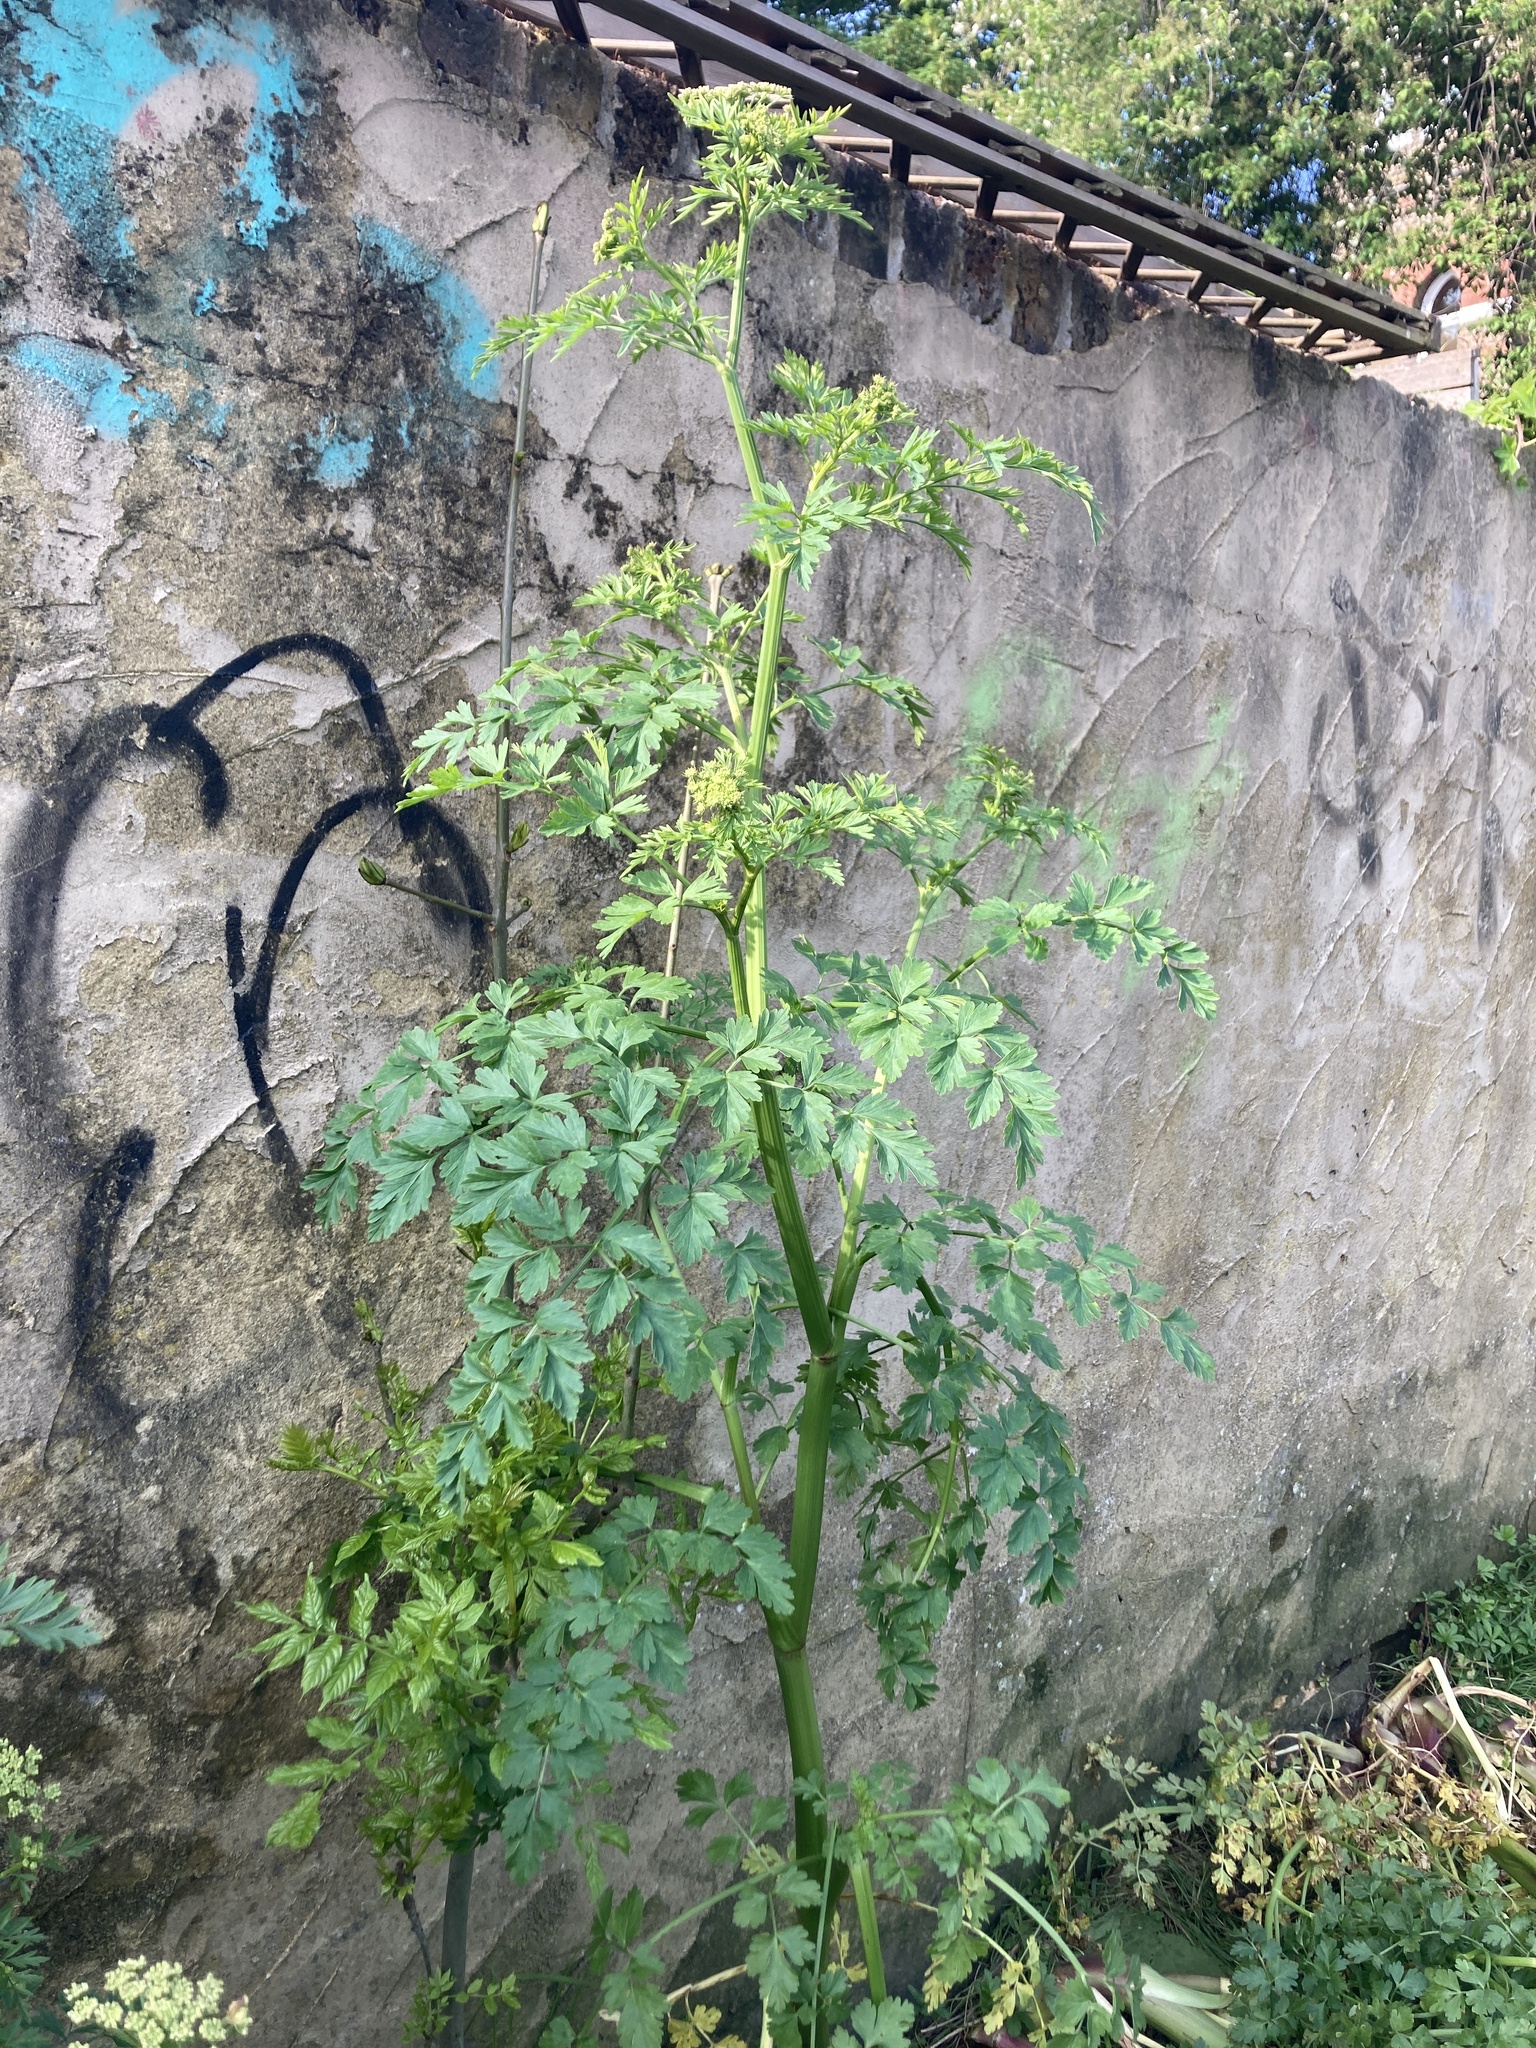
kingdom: Plantae
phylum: Tracheophyta
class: Magnoliopsida
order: Apiales
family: Apiaceae
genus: Oenanthe
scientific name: Oenanthe crocata
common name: Hemlock water-dropwort
